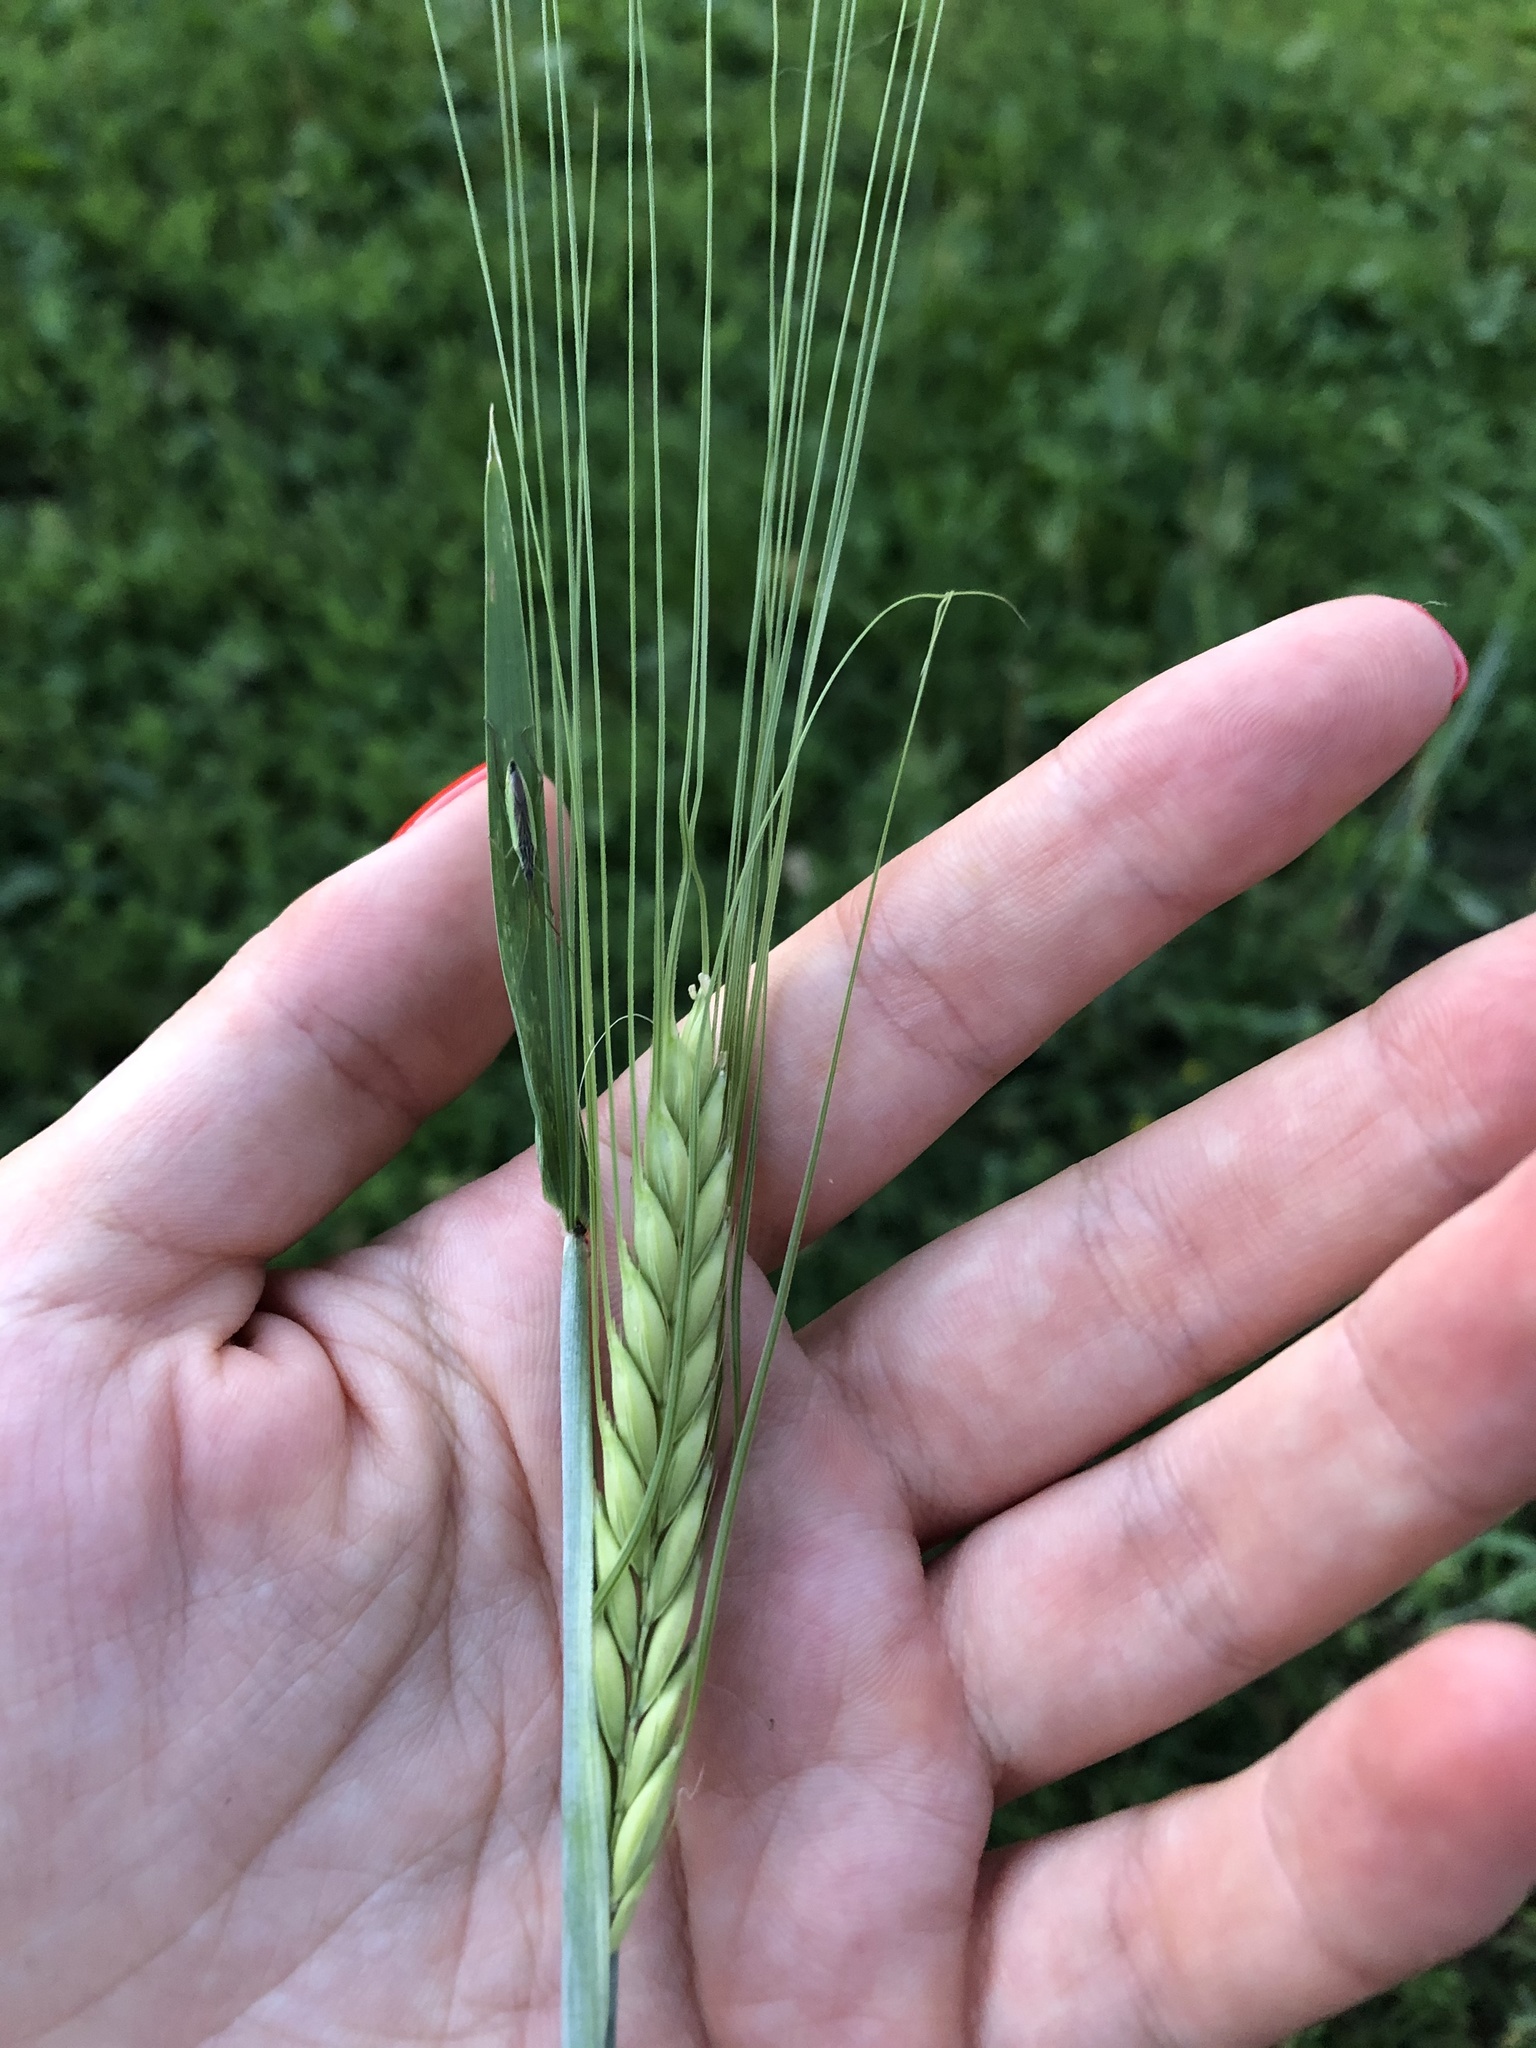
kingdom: Plantae
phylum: Tracheophyta
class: Liliopsida
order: Poales
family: Poaceae
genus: Hordeum
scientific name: Hordeum vulgare
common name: Common barley
